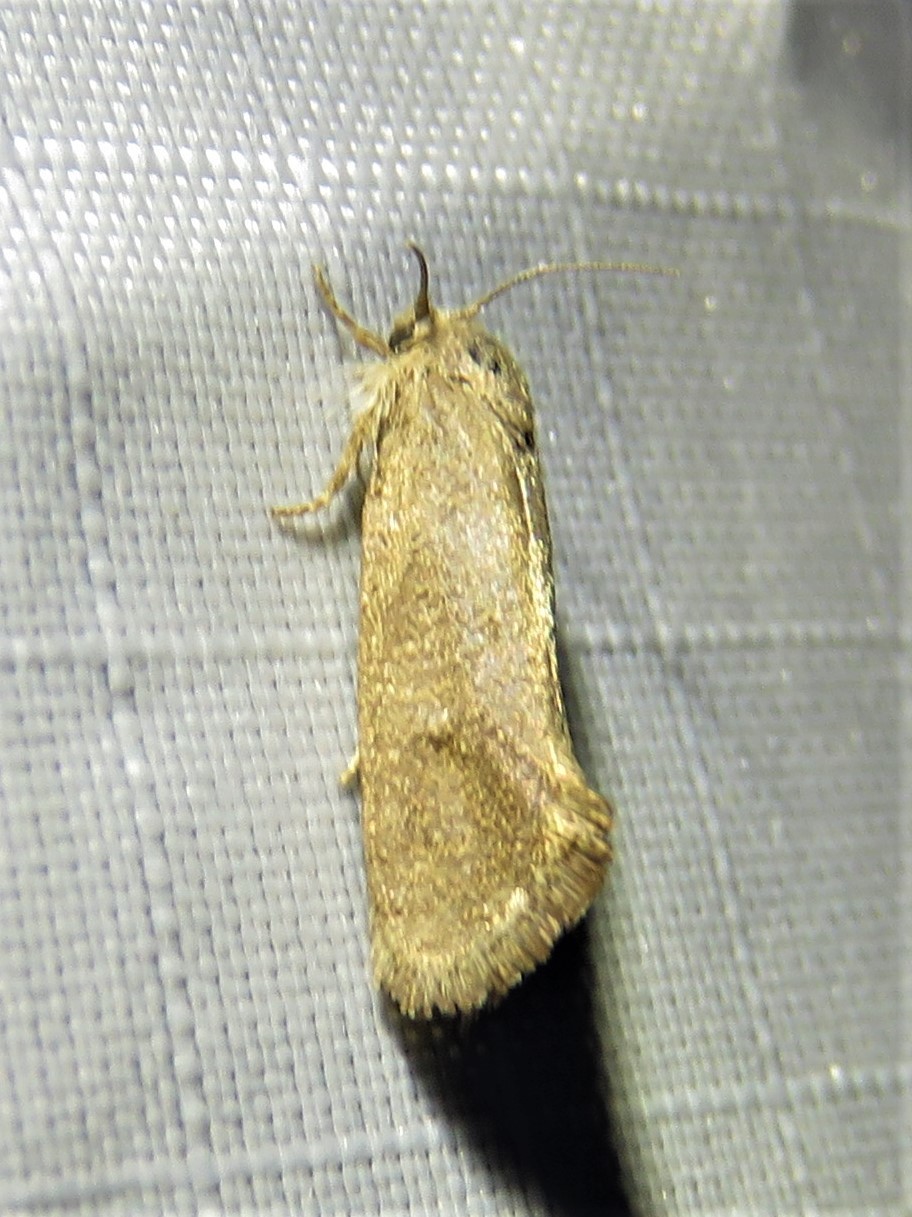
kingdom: Animalia
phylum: Arthropoda
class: Insecta
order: Lepidoptera
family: Tineidae
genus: Acrolophus
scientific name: Acrolophus heppneri
